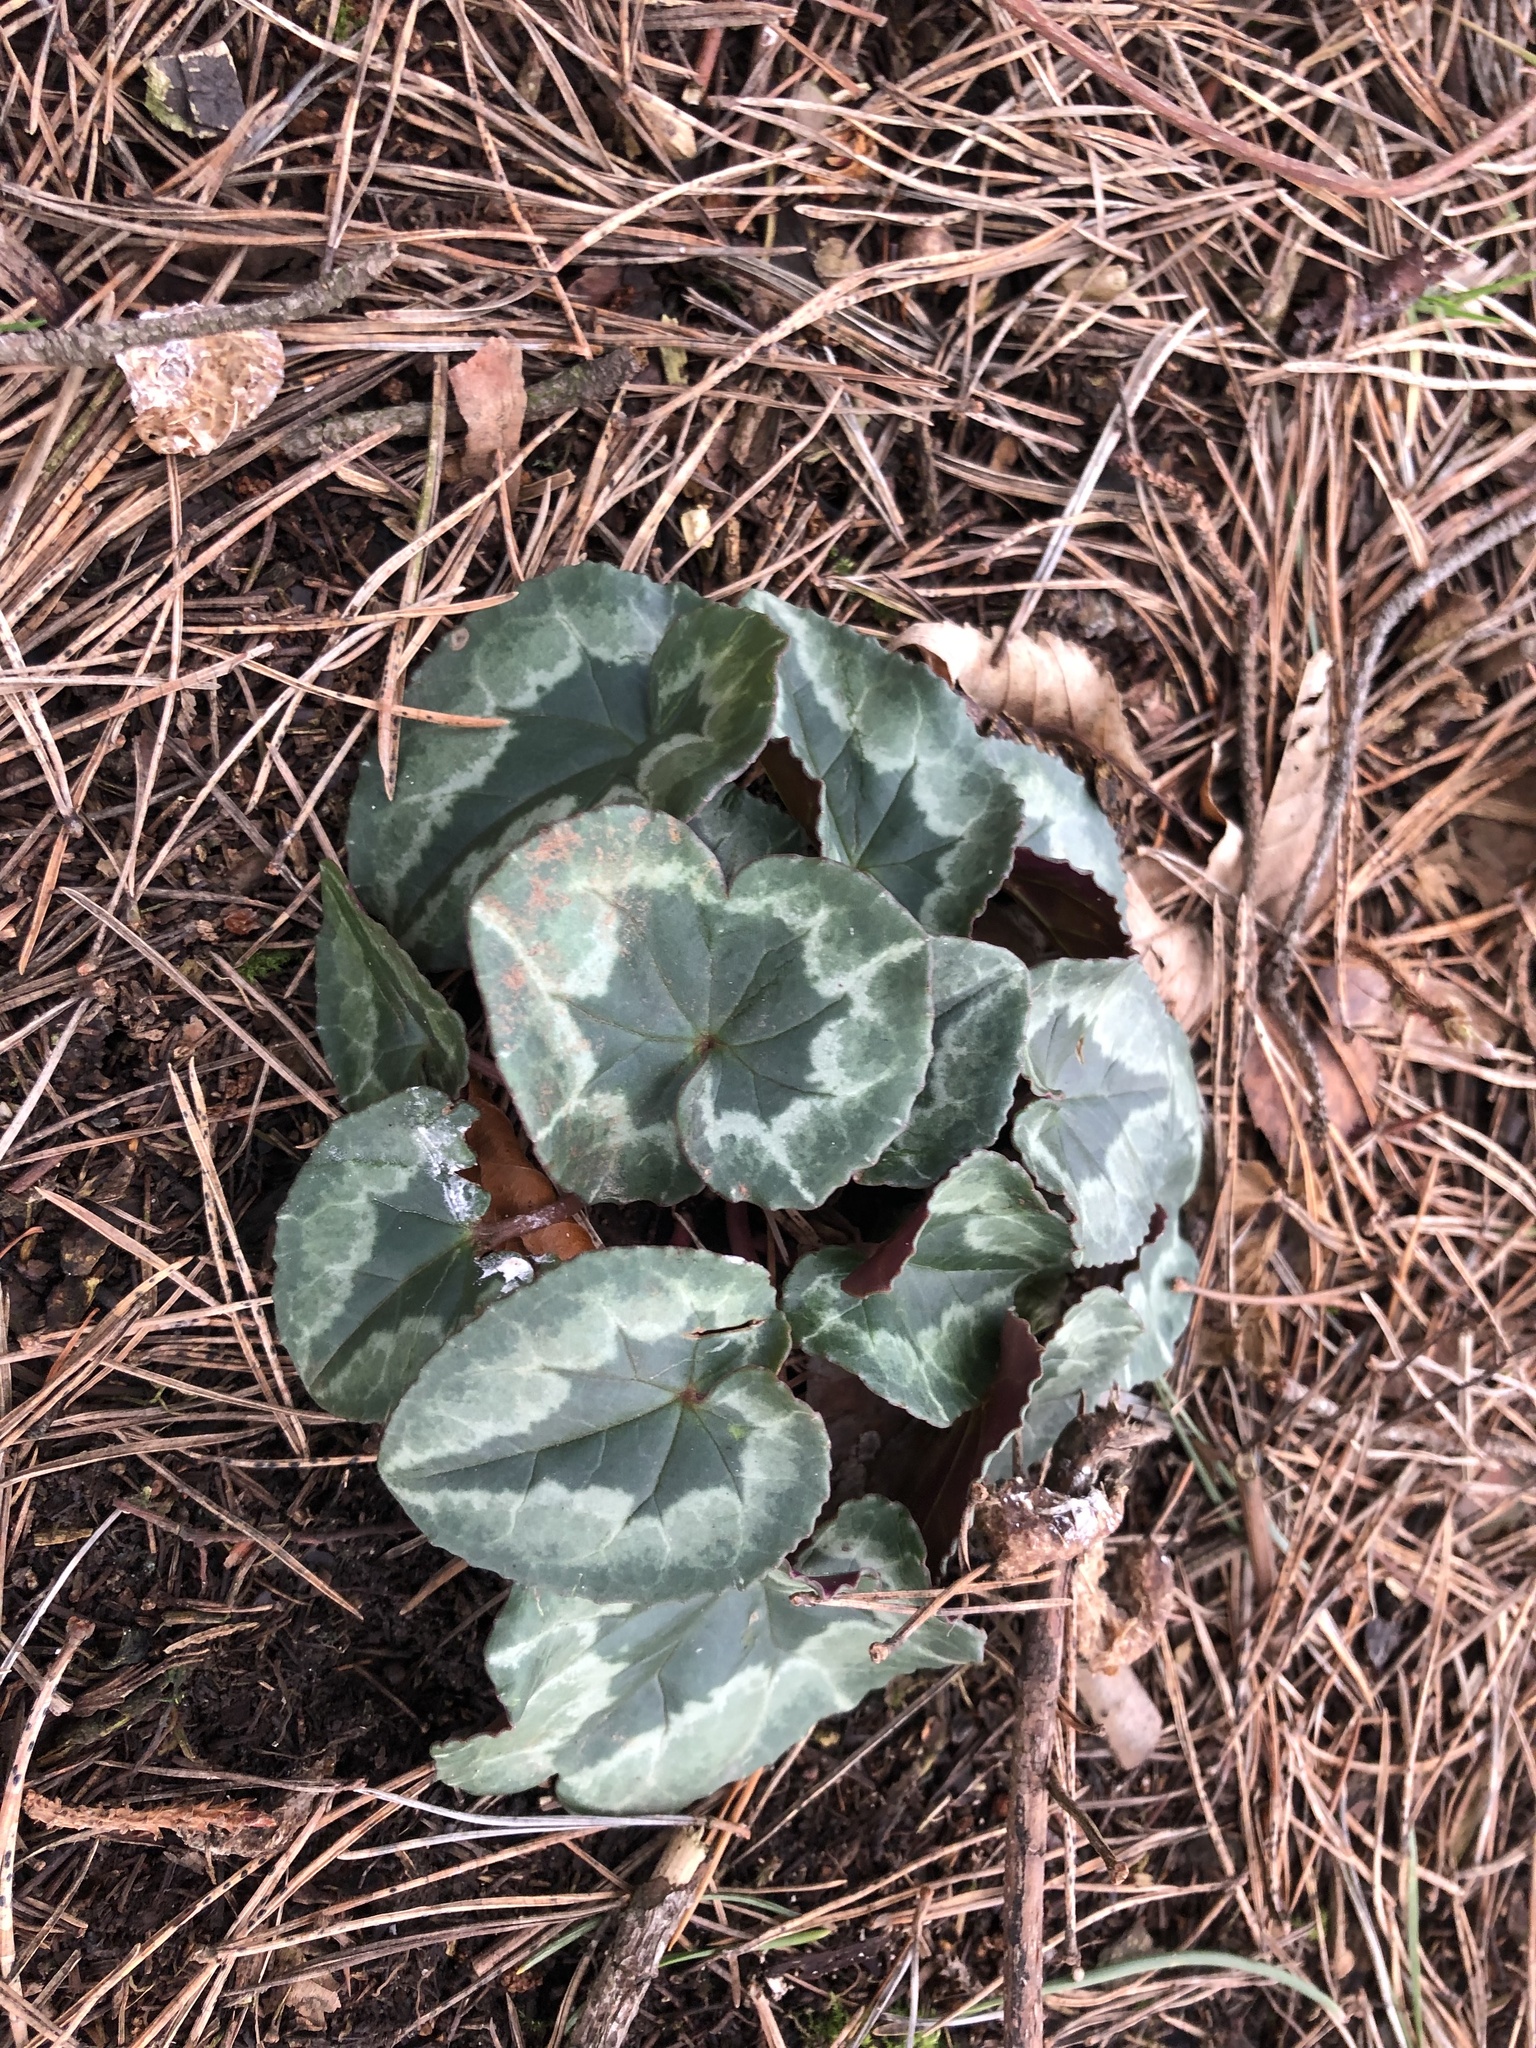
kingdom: Plantae
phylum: Tracheophyta
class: Magnoliopsida
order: Ericales
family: Primulaceae
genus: Cyclamen
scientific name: Cyclamen hederifolium
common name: Sowbread
